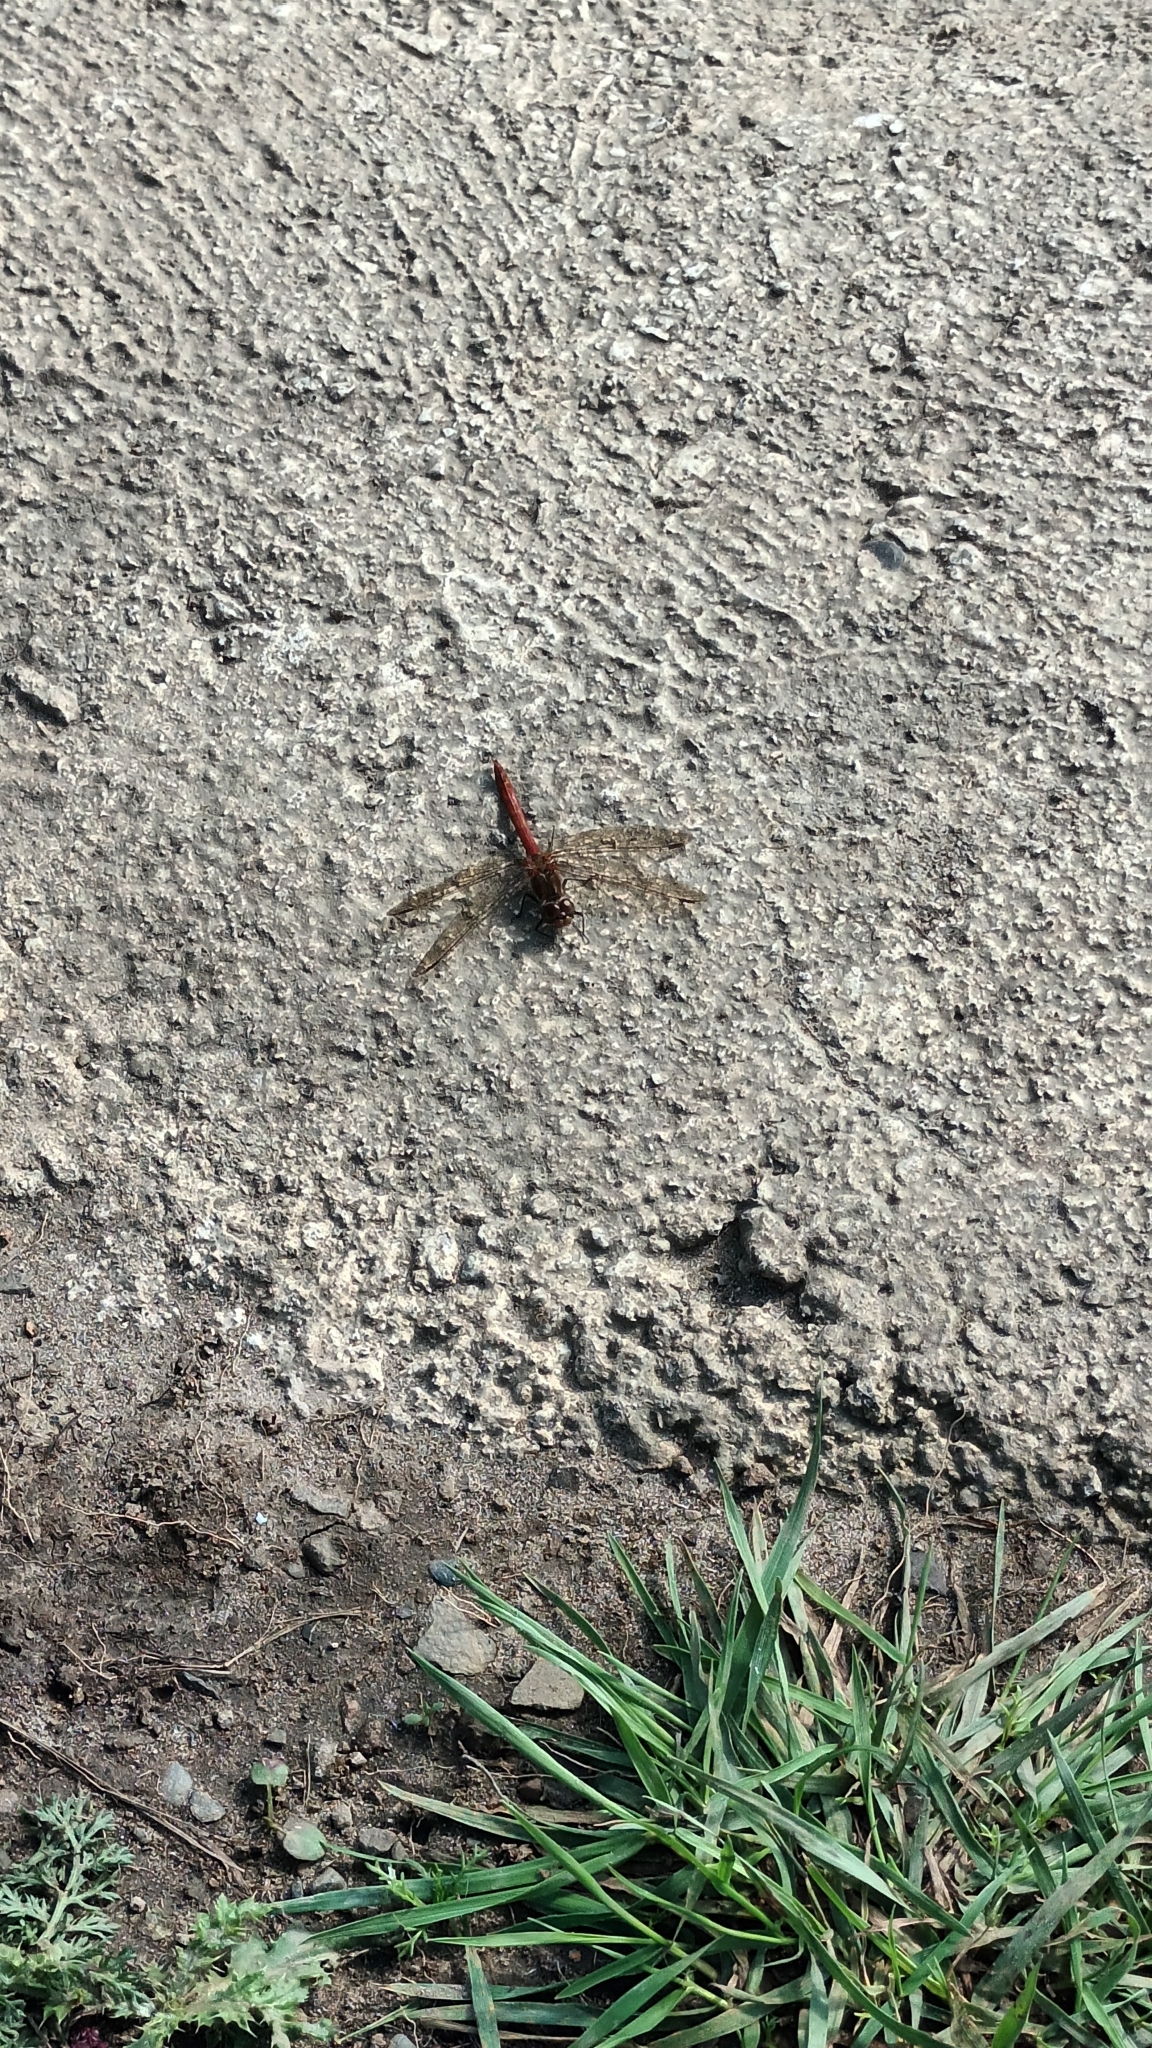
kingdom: Animalia
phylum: Arthropoda
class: Insecta
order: Odonata
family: Libellulidae
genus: Sympetrum
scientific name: Sympetrum striolatum
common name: Common darter
